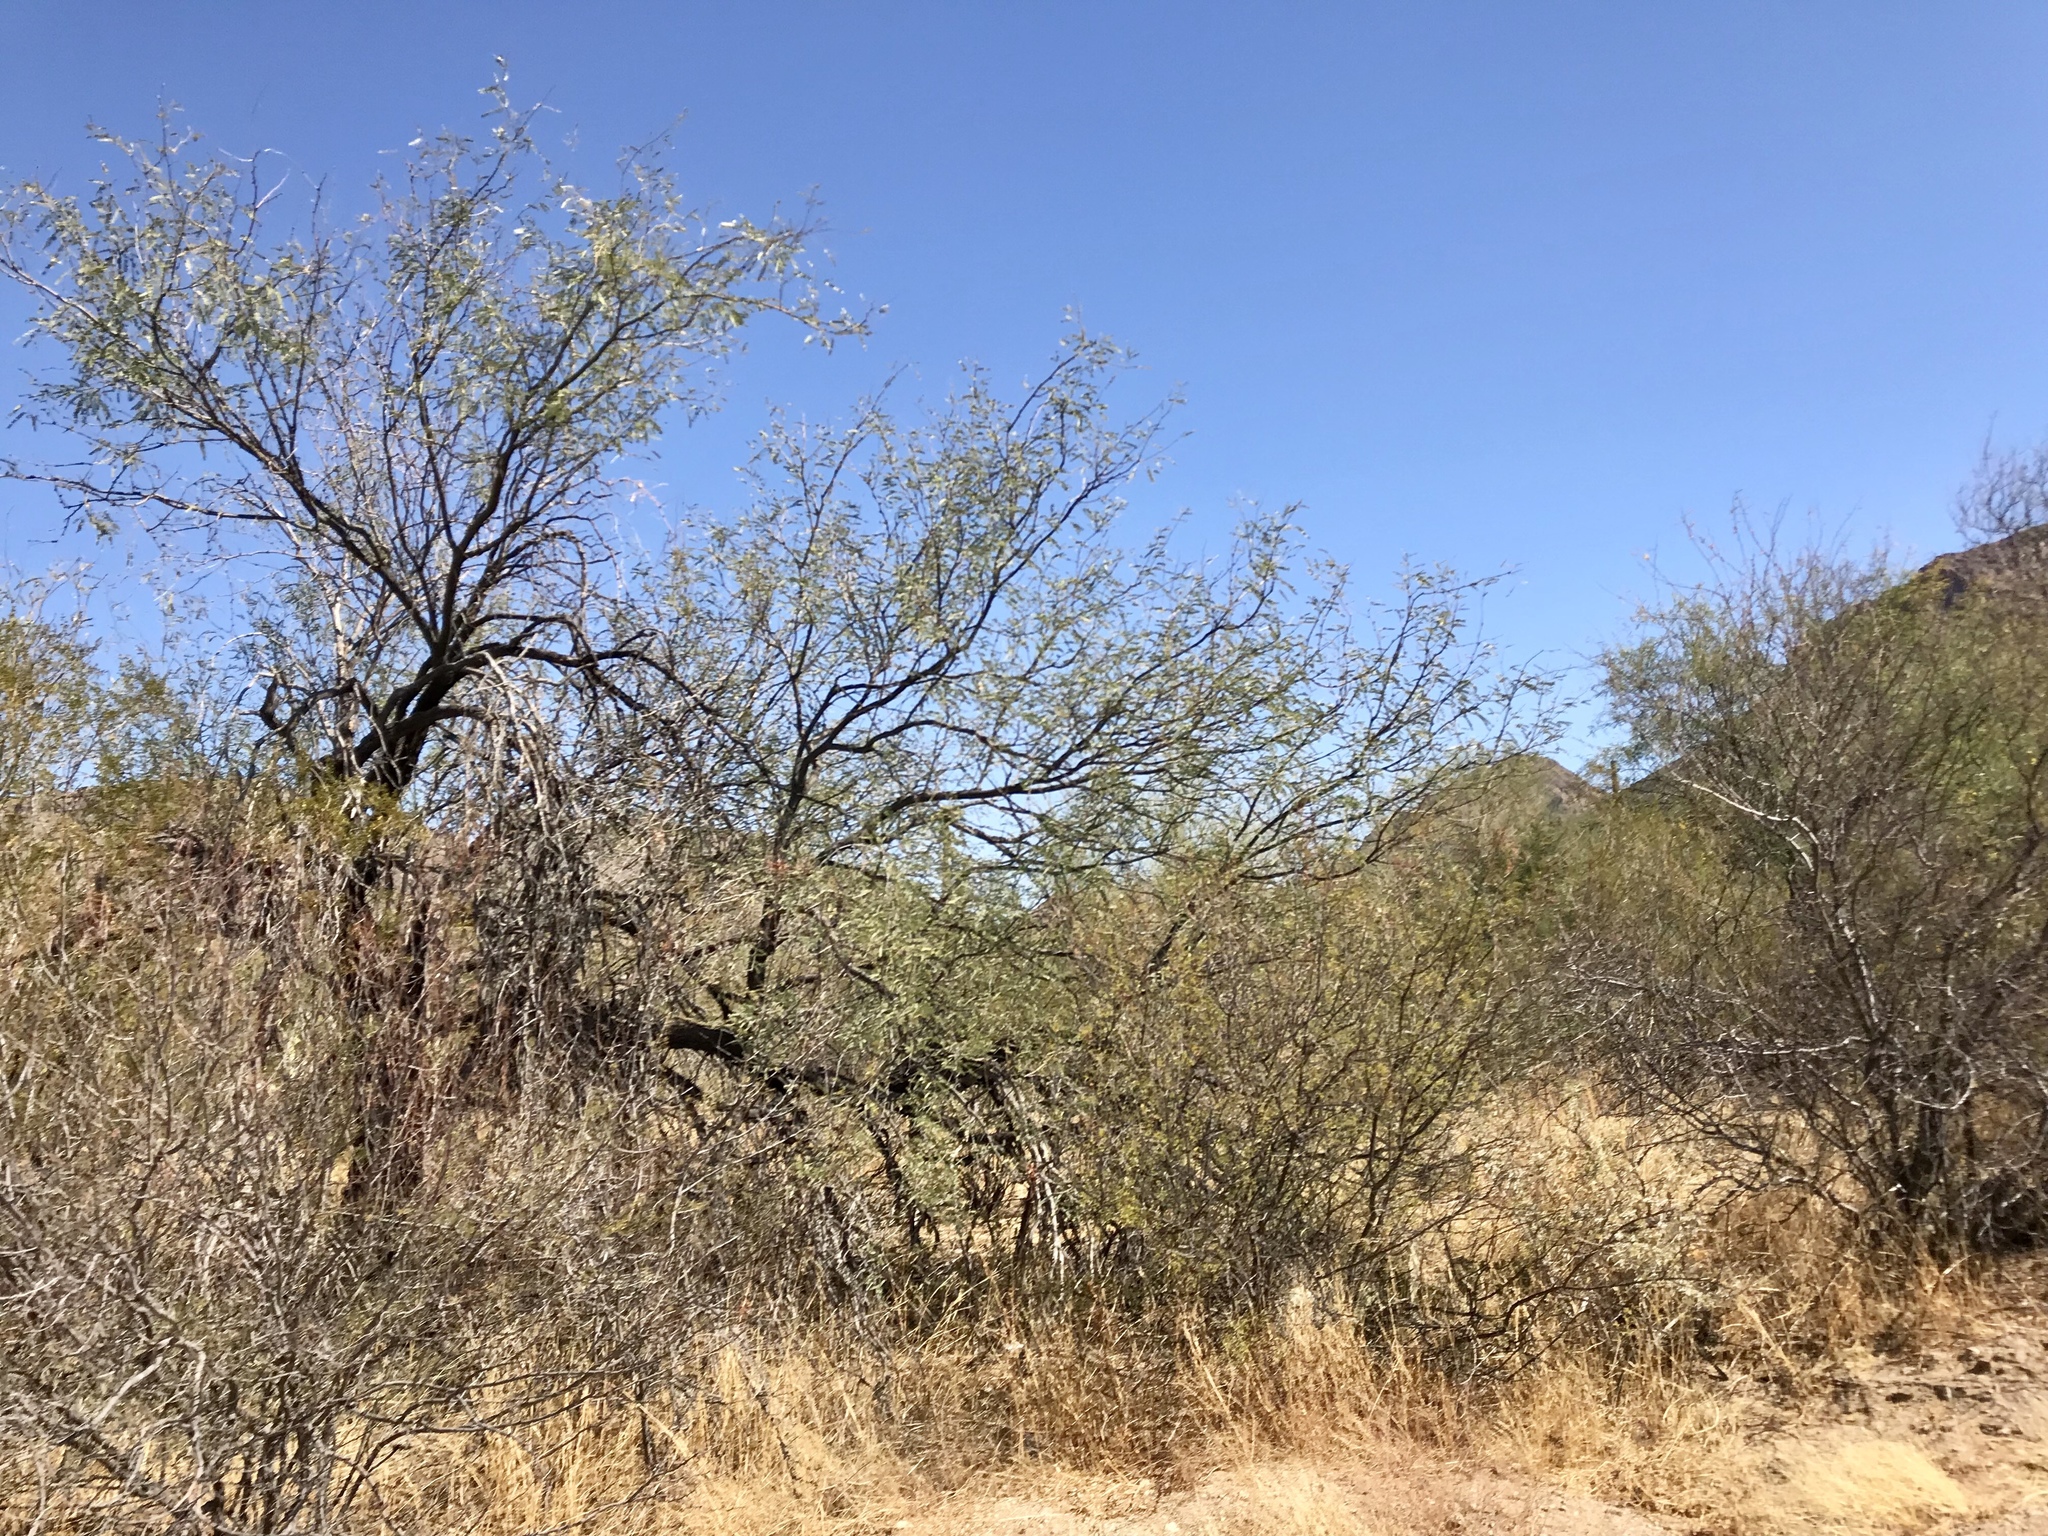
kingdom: Plantae
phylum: Tracheophyta
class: Magnoliopsida
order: Fabales
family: Fabaceae
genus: Olneya
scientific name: Olneya tesota
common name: Desert ironwood
